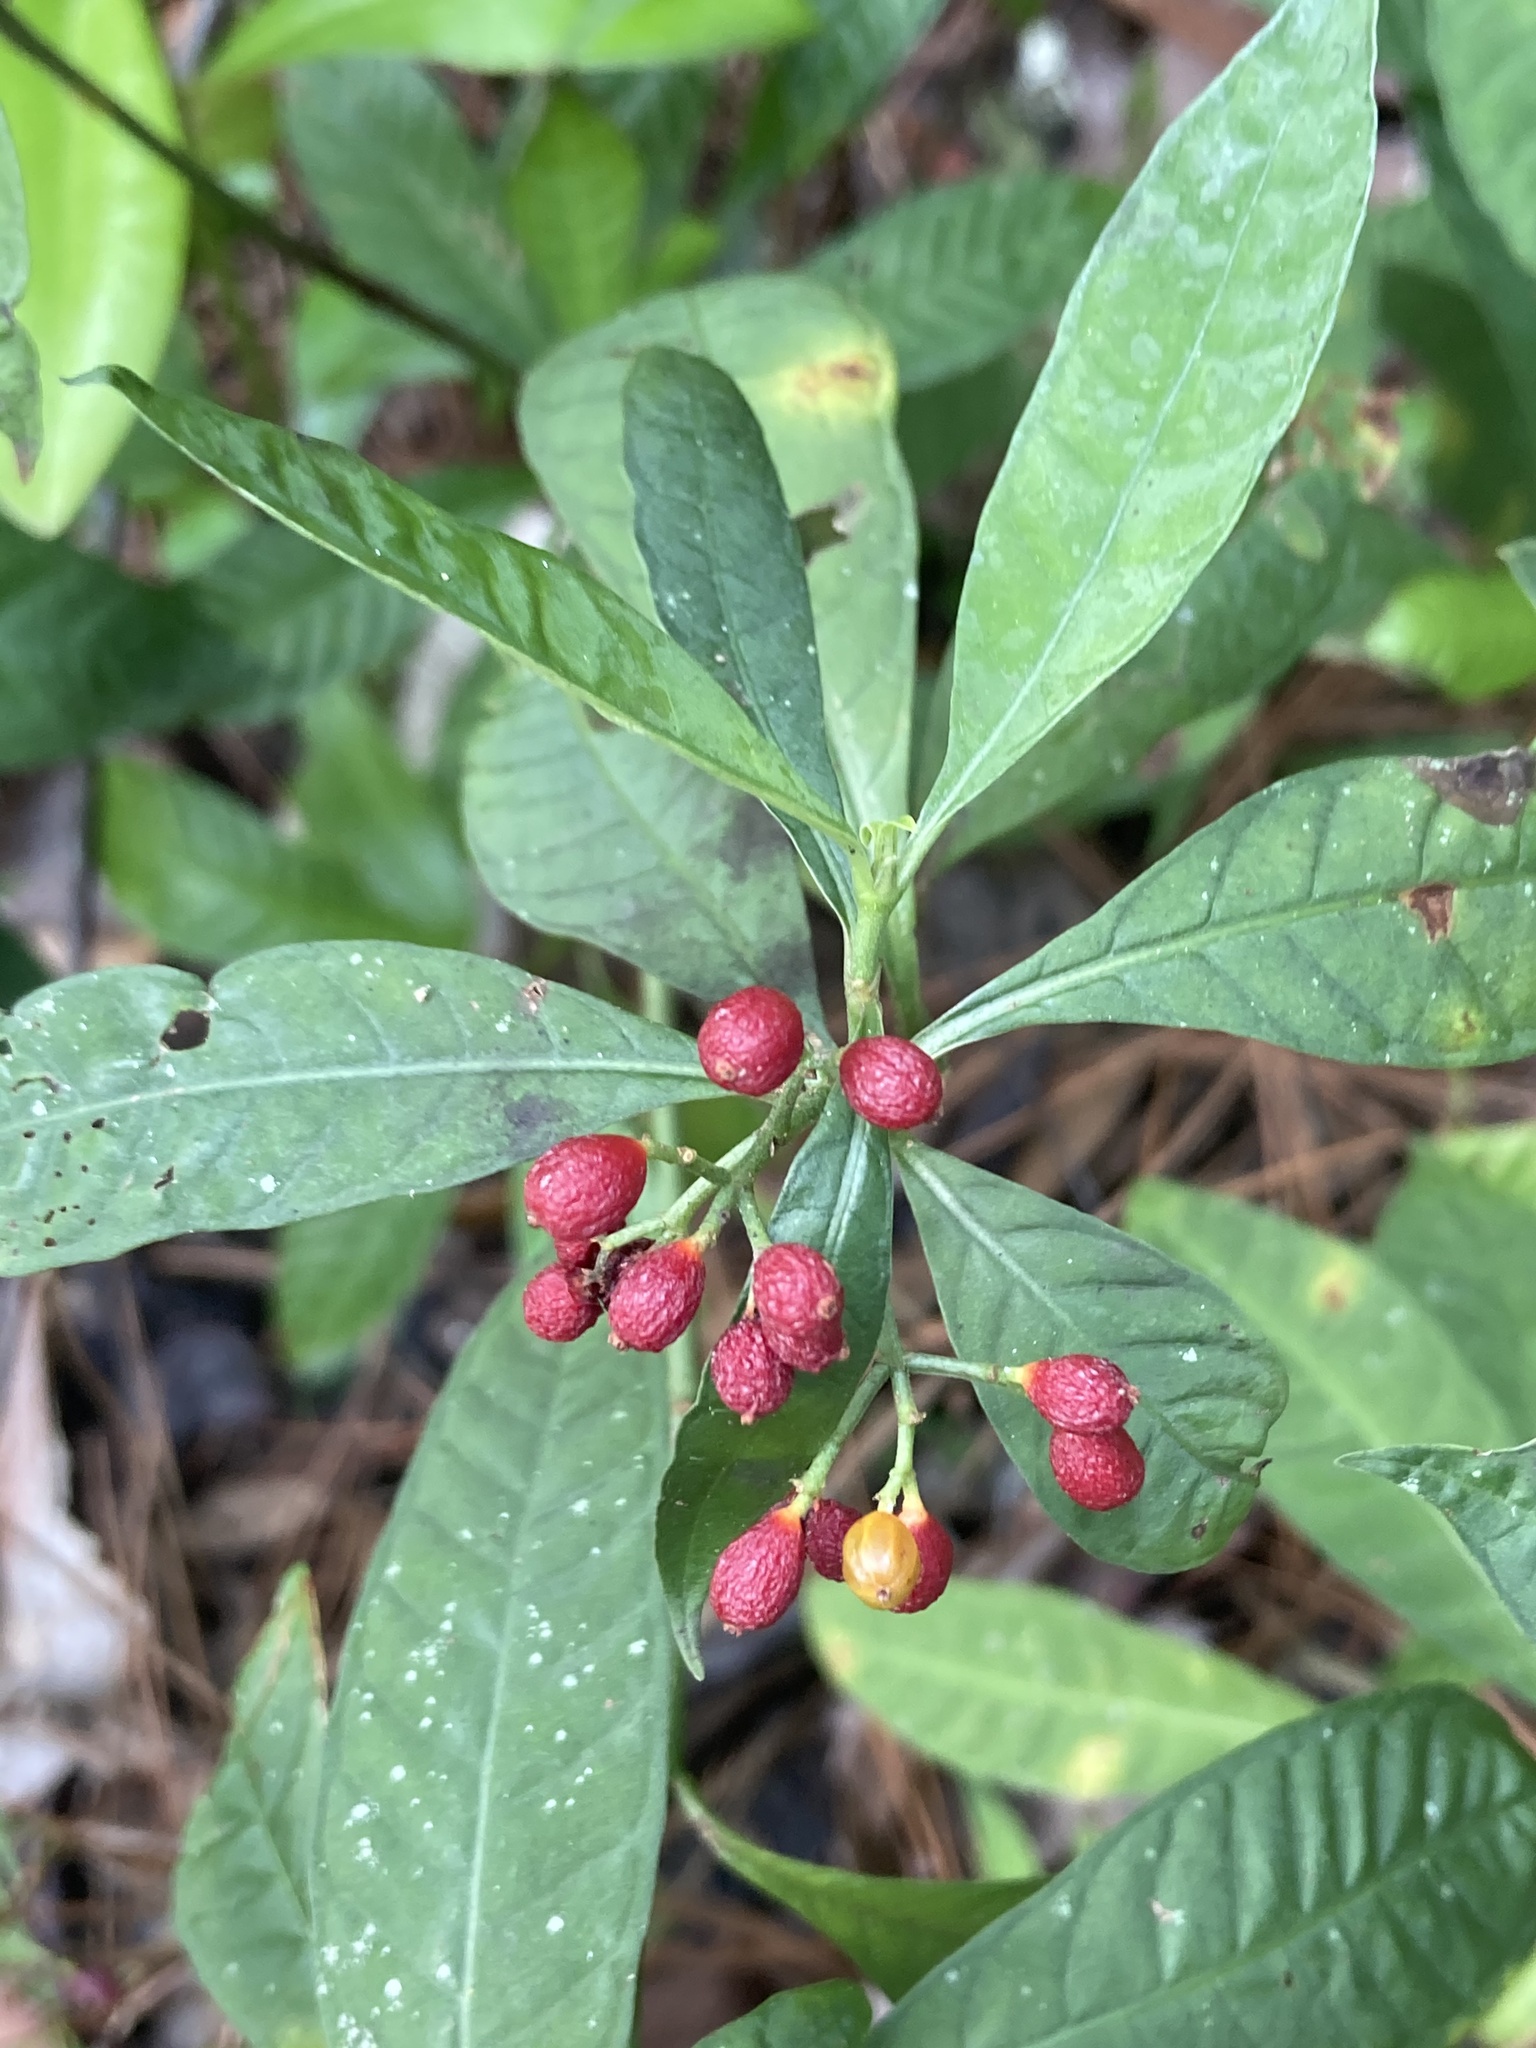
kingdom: Plantae
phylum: Tracheophyta
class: Magnoliopsida
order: Gentianales
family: Rubiaceae
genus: Psychotria
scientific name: Psychotria tenuifolia
